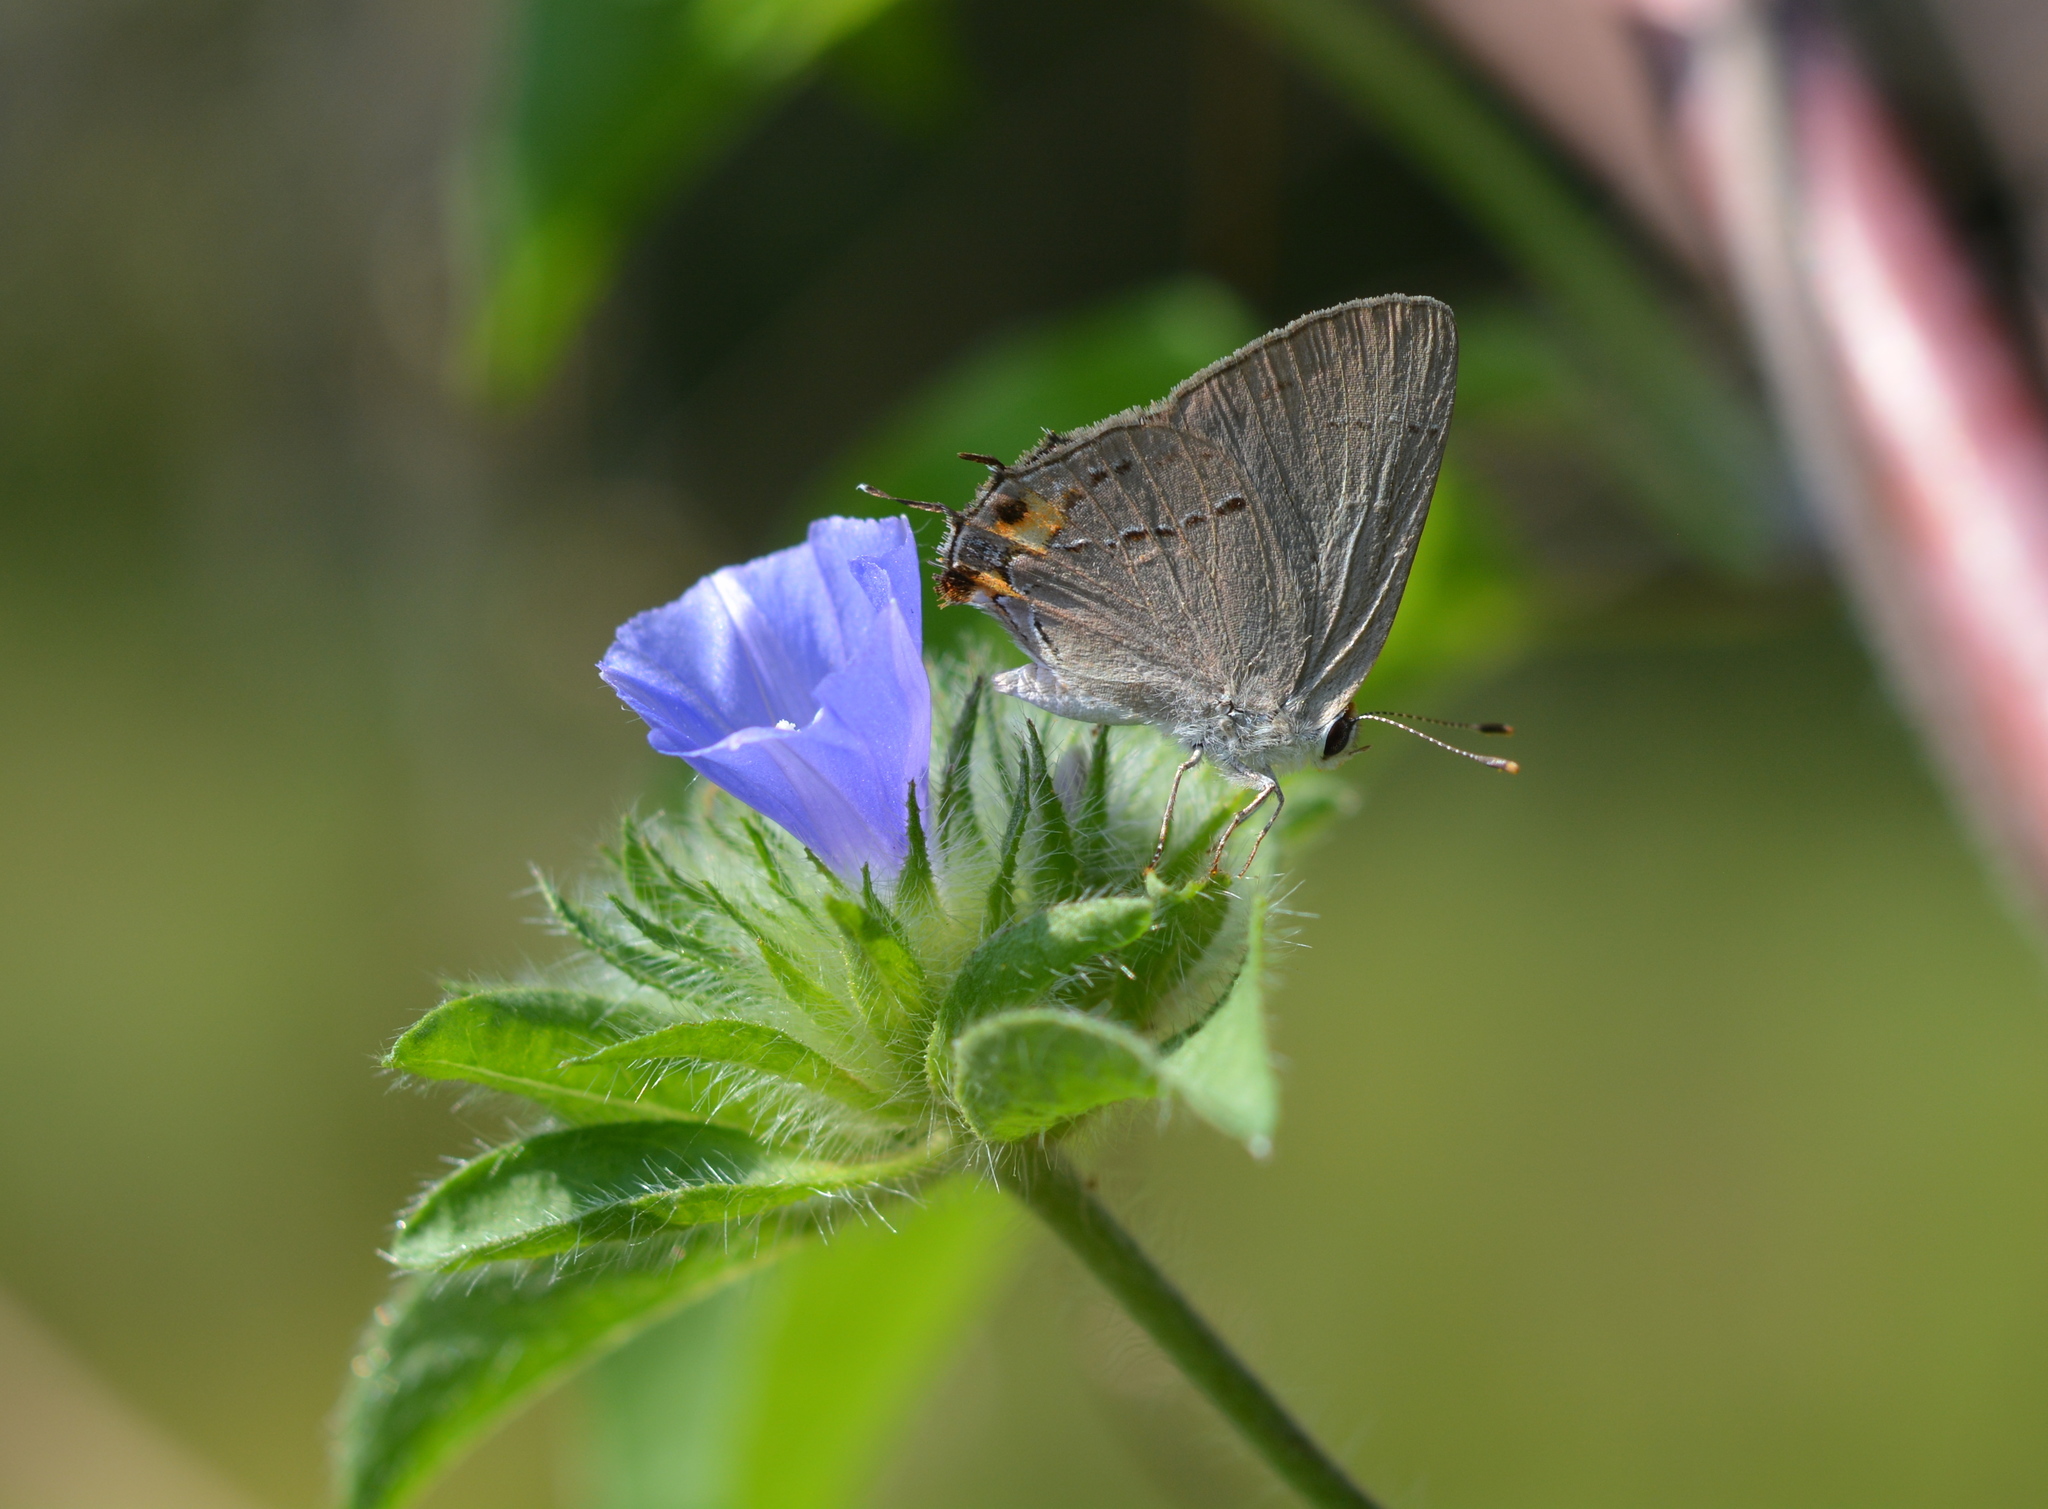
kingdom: Animalia
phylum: Arthropoda
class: Insecta
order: Lepidoptera
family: Lycaenidae
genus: Strymon
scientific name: Strymon melinus
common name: Gray hairstreak
